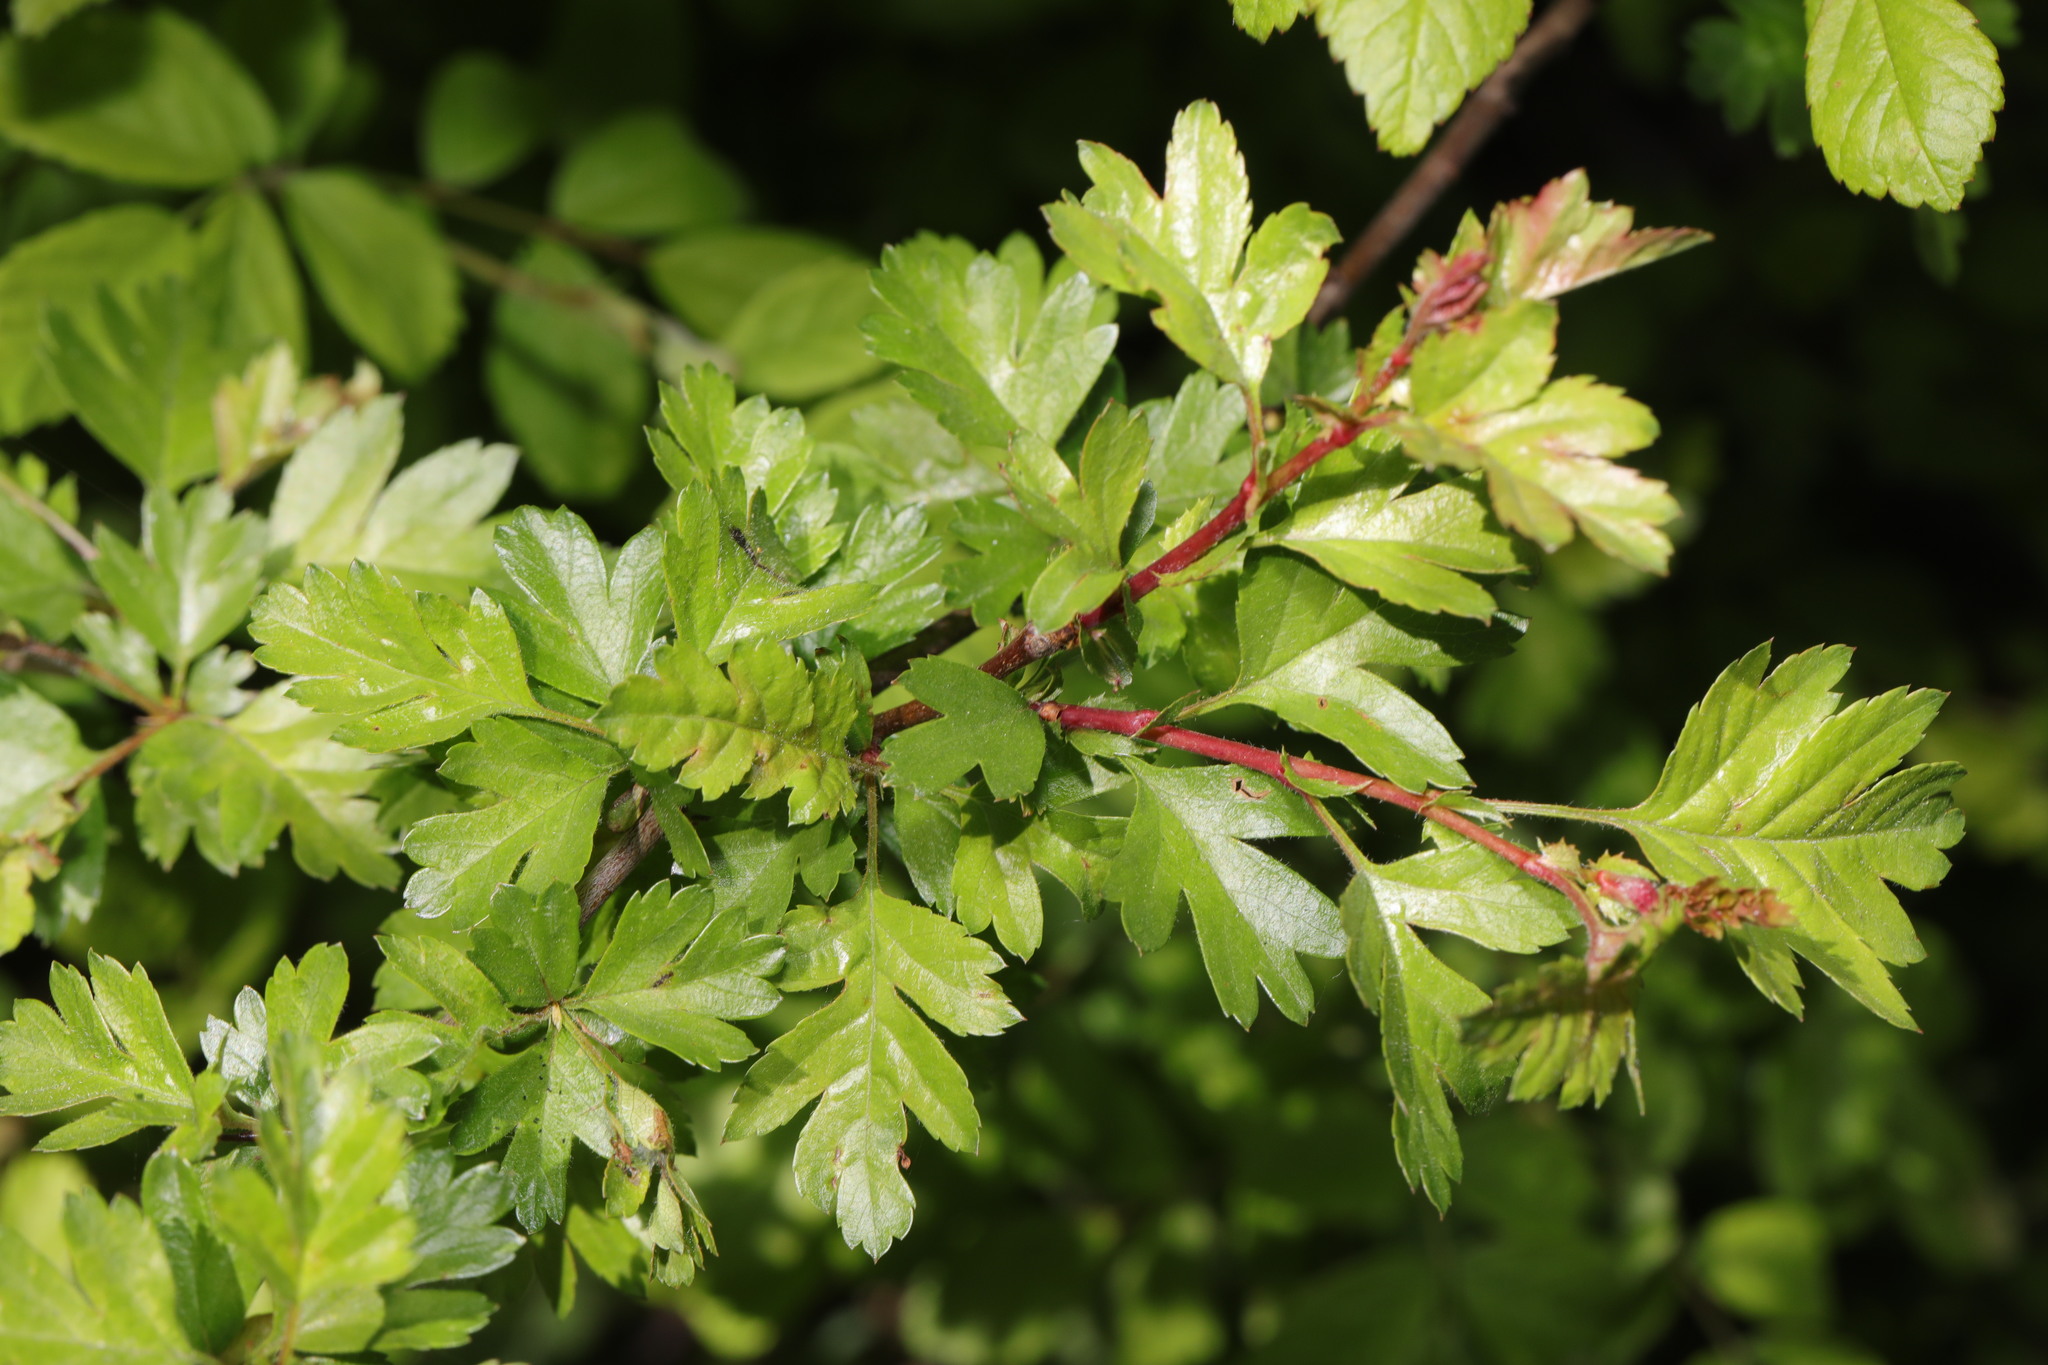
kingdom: Plantae
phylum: Tracheophyta
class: Magnoliopsida
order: Rosales
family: Rosaceae
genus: Crataegus
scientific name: Crataegus monogyna
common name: Hawthorn
